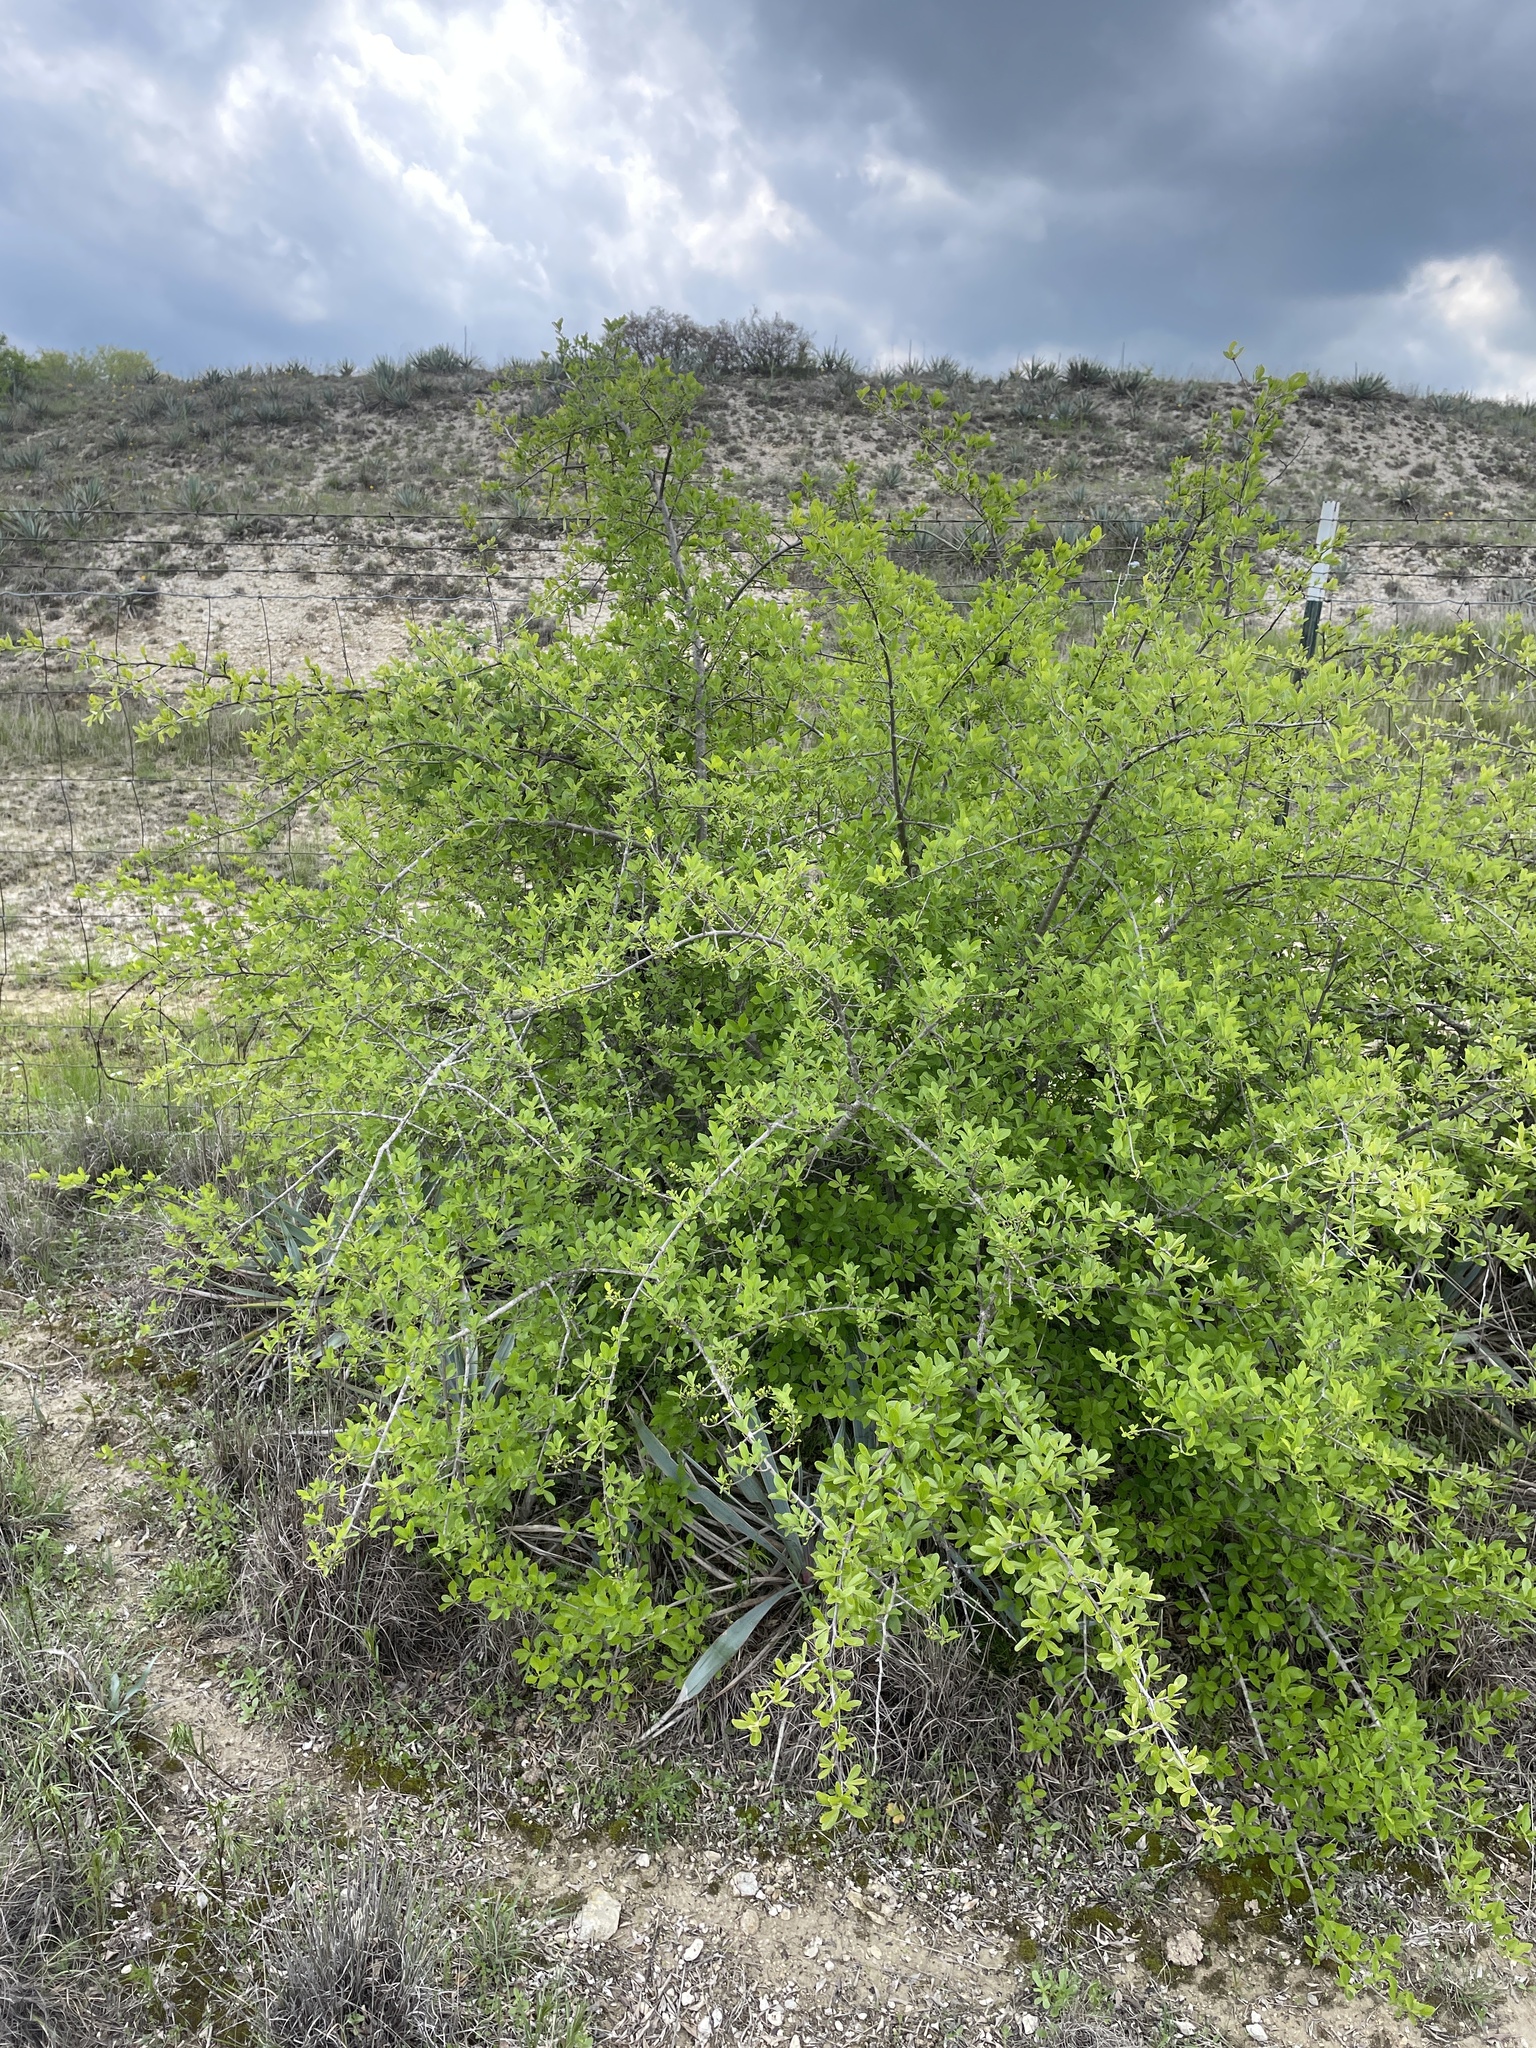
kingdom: Plantae
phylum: Tracheophyta
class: Magnoliopsida
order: Lamiales
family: Oleaceae
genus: Forestiera
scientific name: Forestiera pubescens
